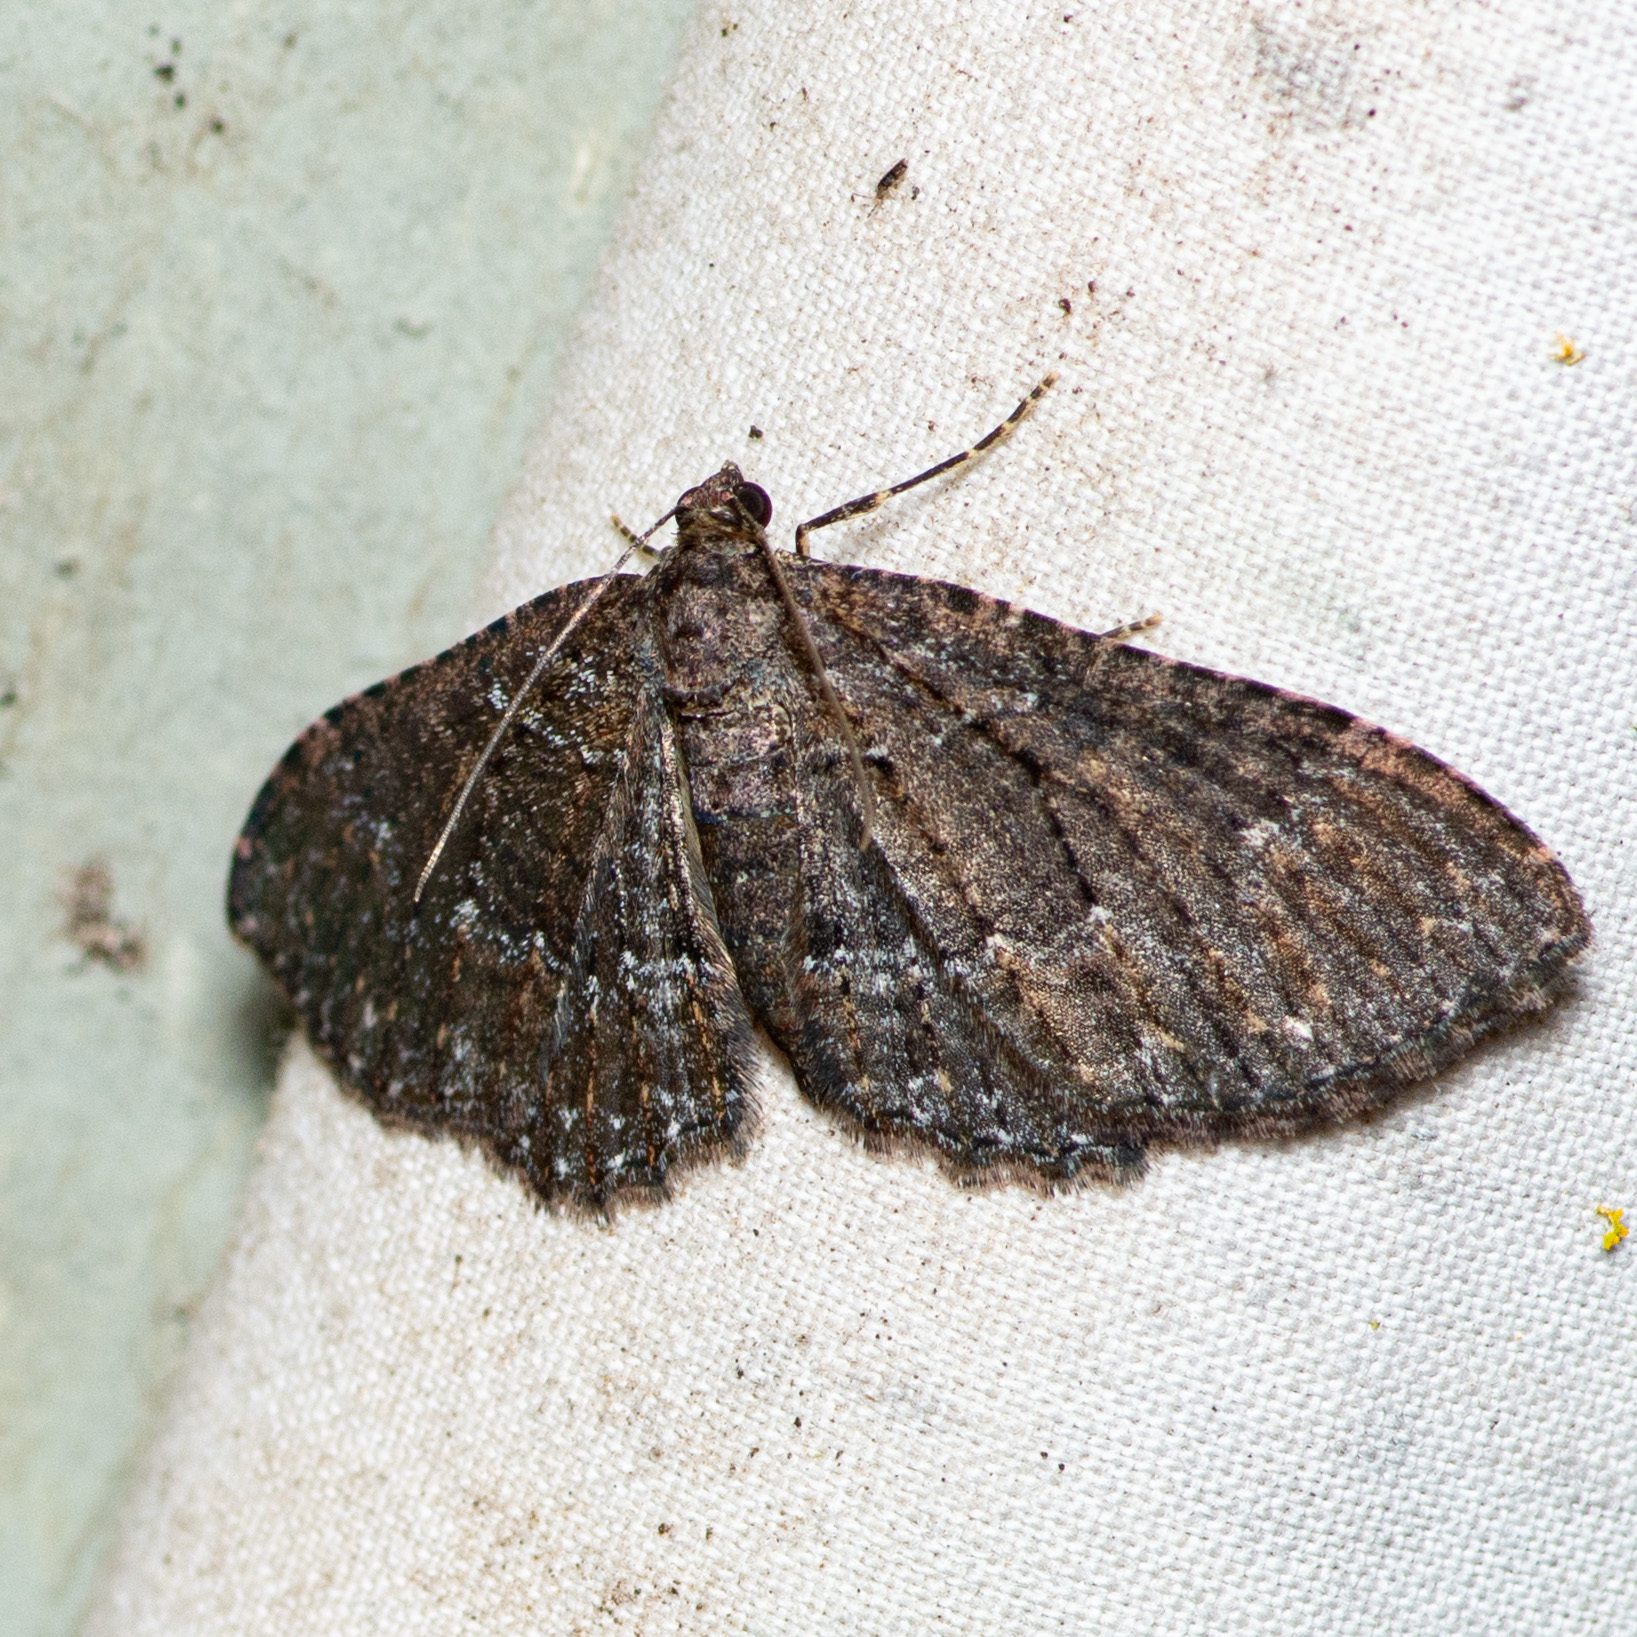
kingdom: Animalia
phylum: Arthropoda
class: Insecta
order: Lepidoptera
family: Geometridae
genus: Disclisioprocta
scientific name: Disclisioprocta stellata
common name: Somber carpet
